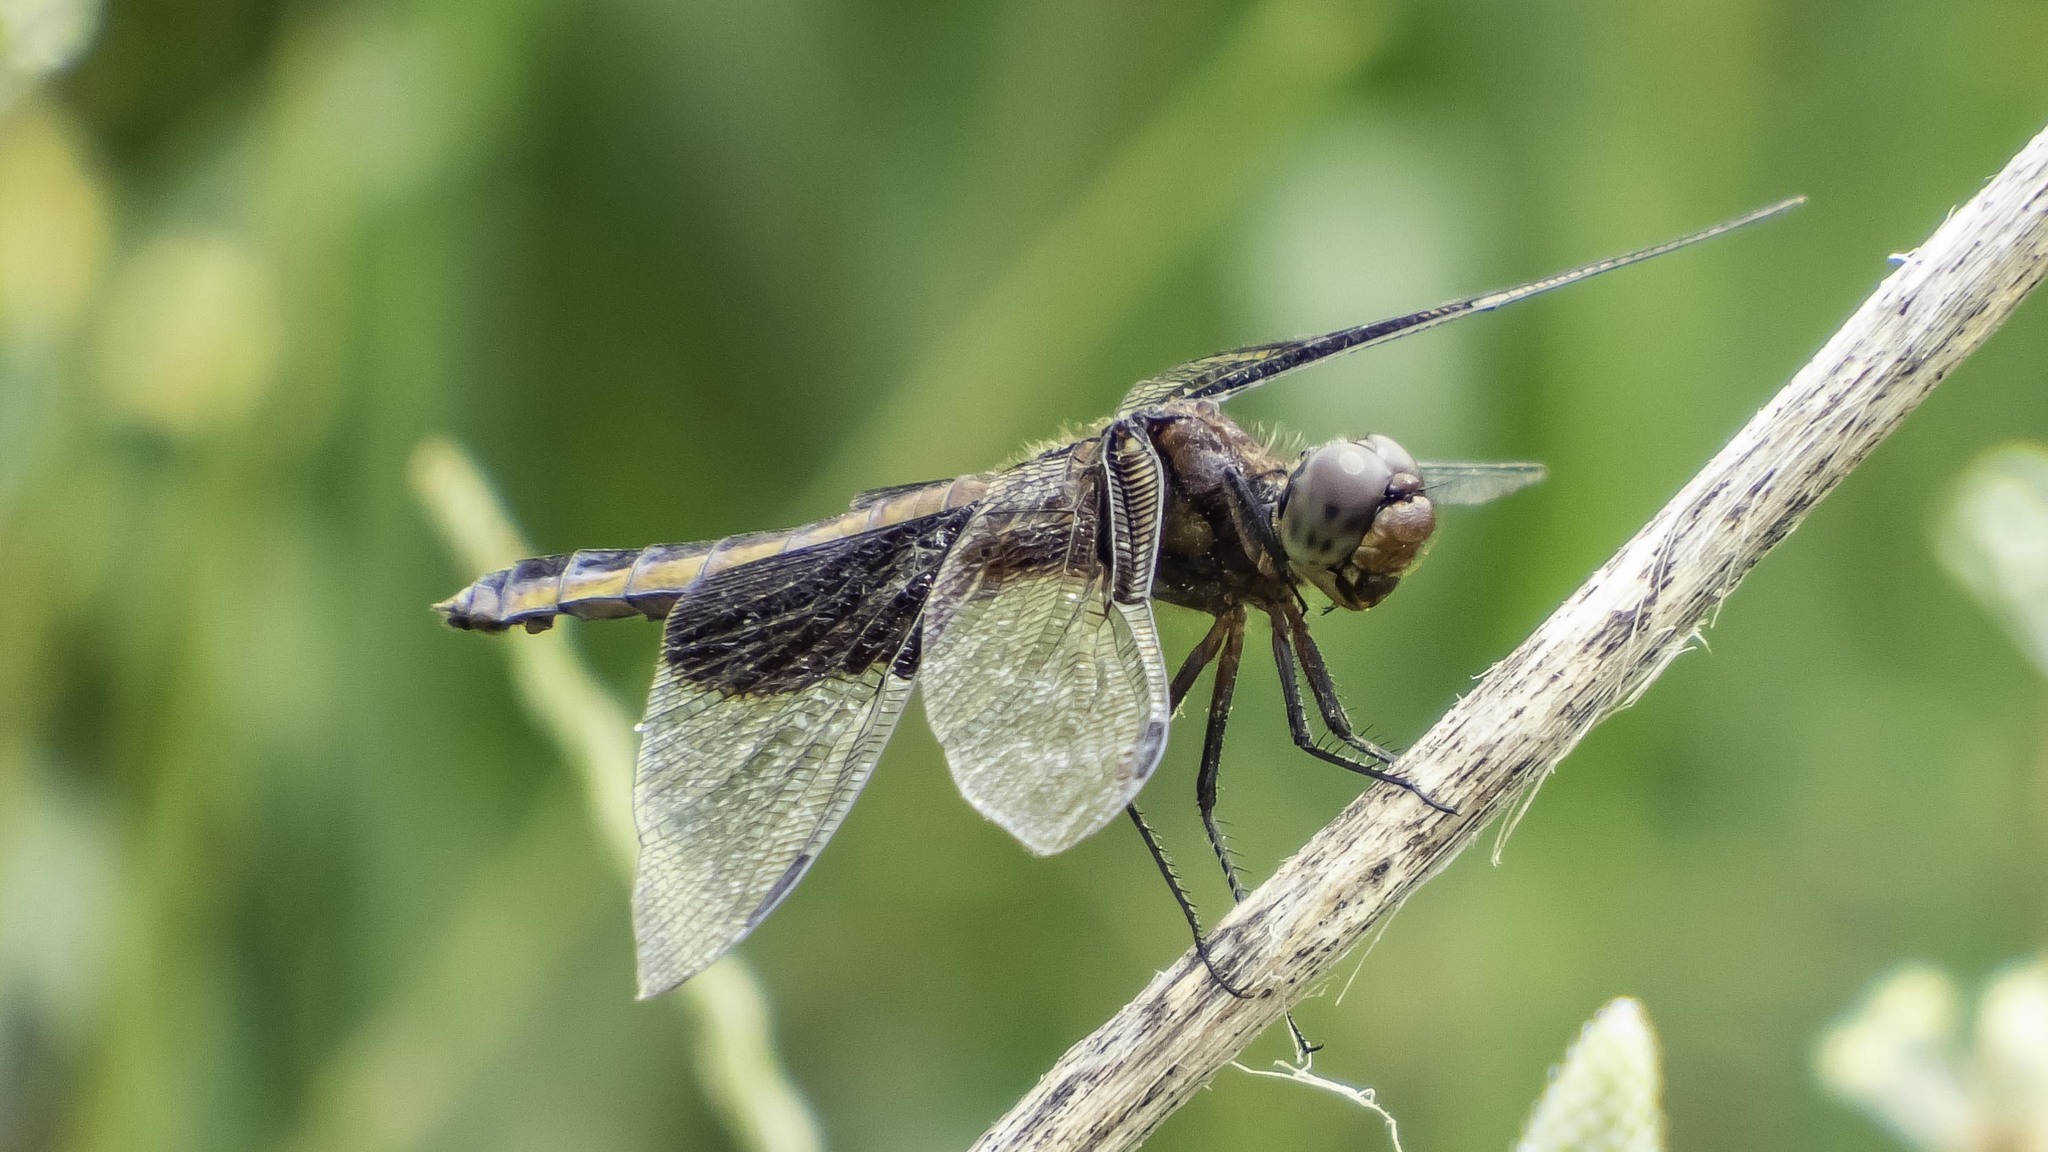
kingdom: Animalia
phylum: Arthropoda
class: Insecta
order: Odonata
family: Libellulidae
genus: Libellula
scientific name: Libellula luctuosa
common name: Widow skimmer
